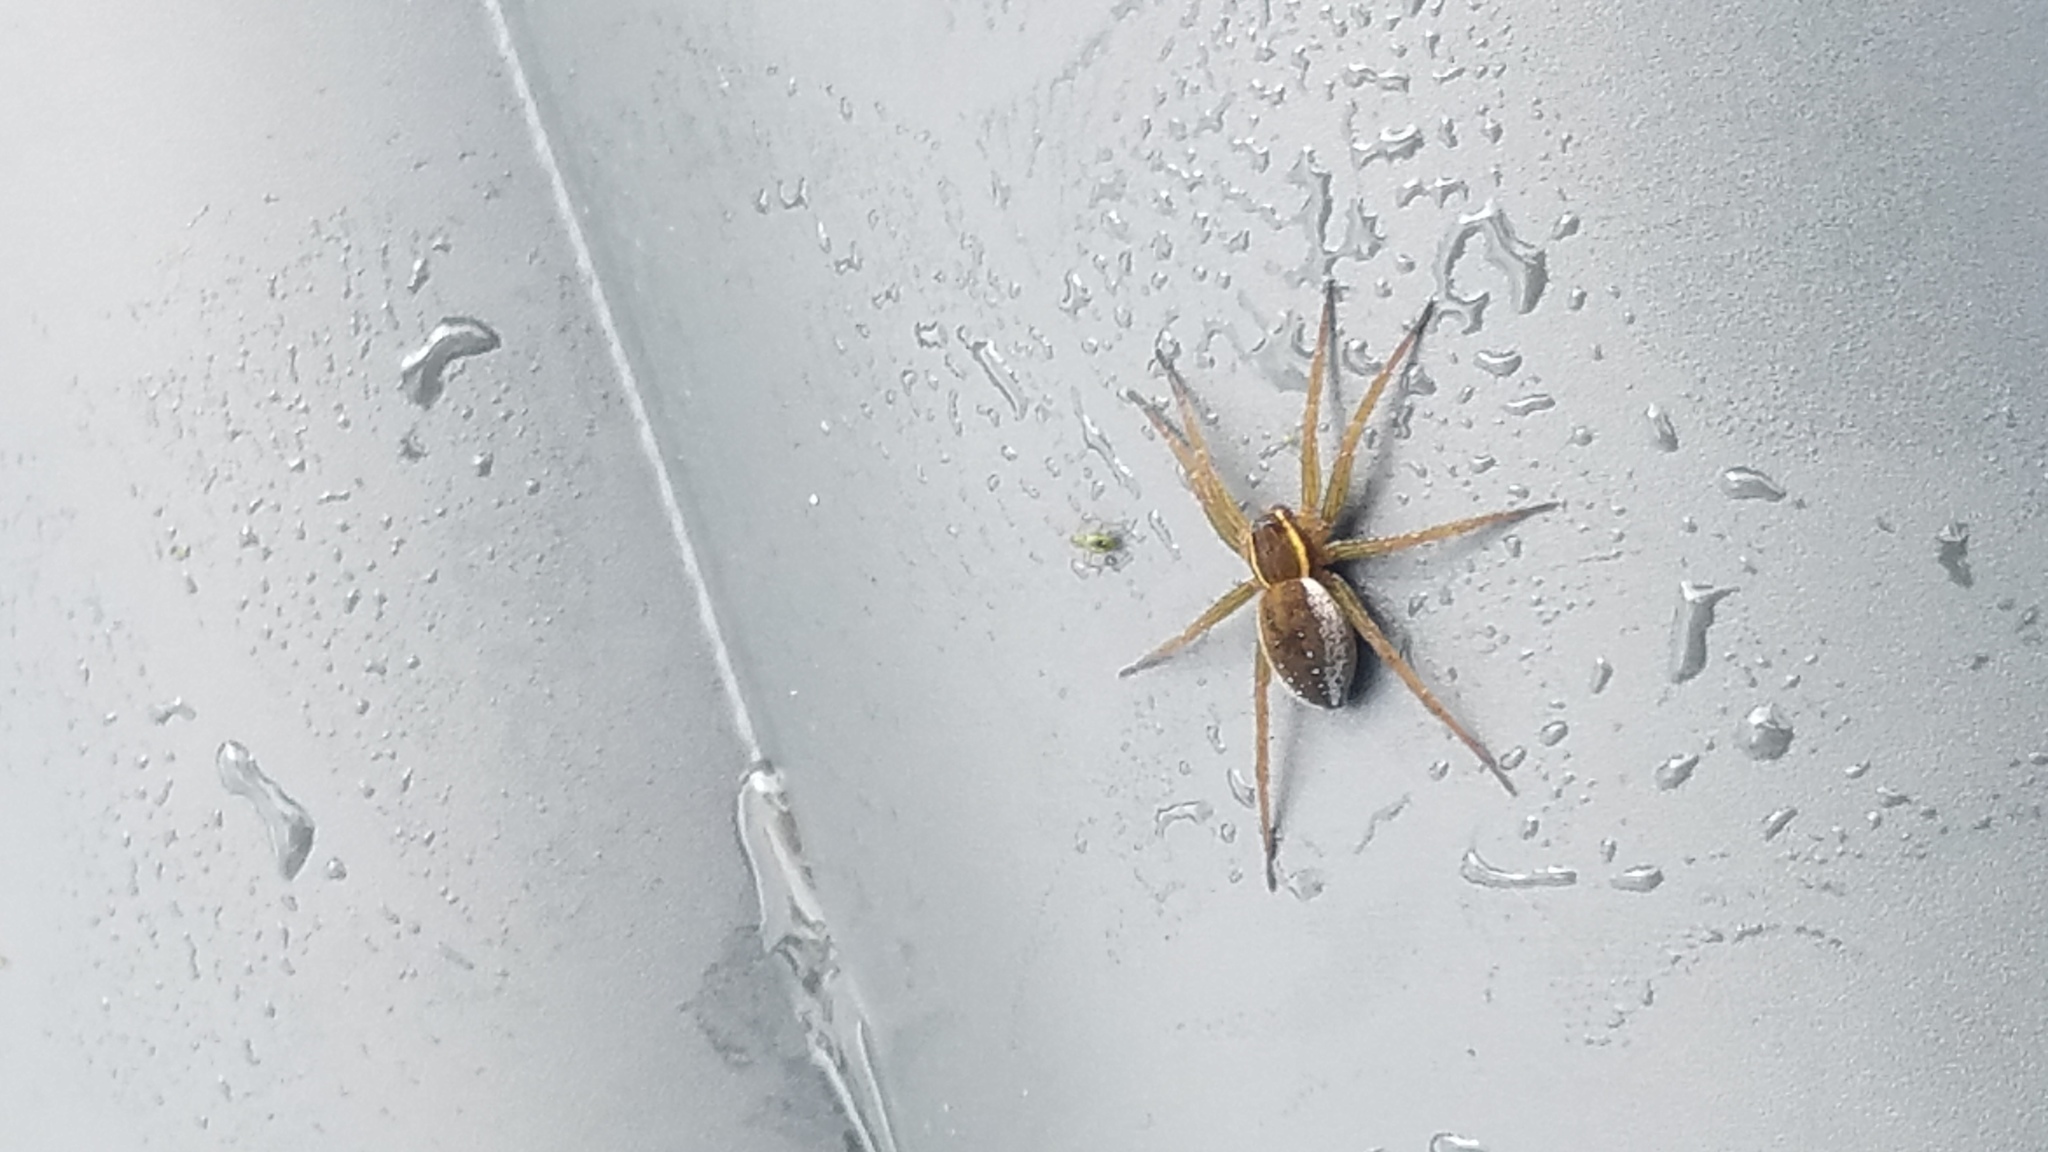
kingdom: Animalia
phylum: Arthropoda
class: Arachnida
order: Araneae
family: Pisauridae
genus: Dolomedes
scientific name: Dolomedes triton
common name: Six-spotted fishing spider
